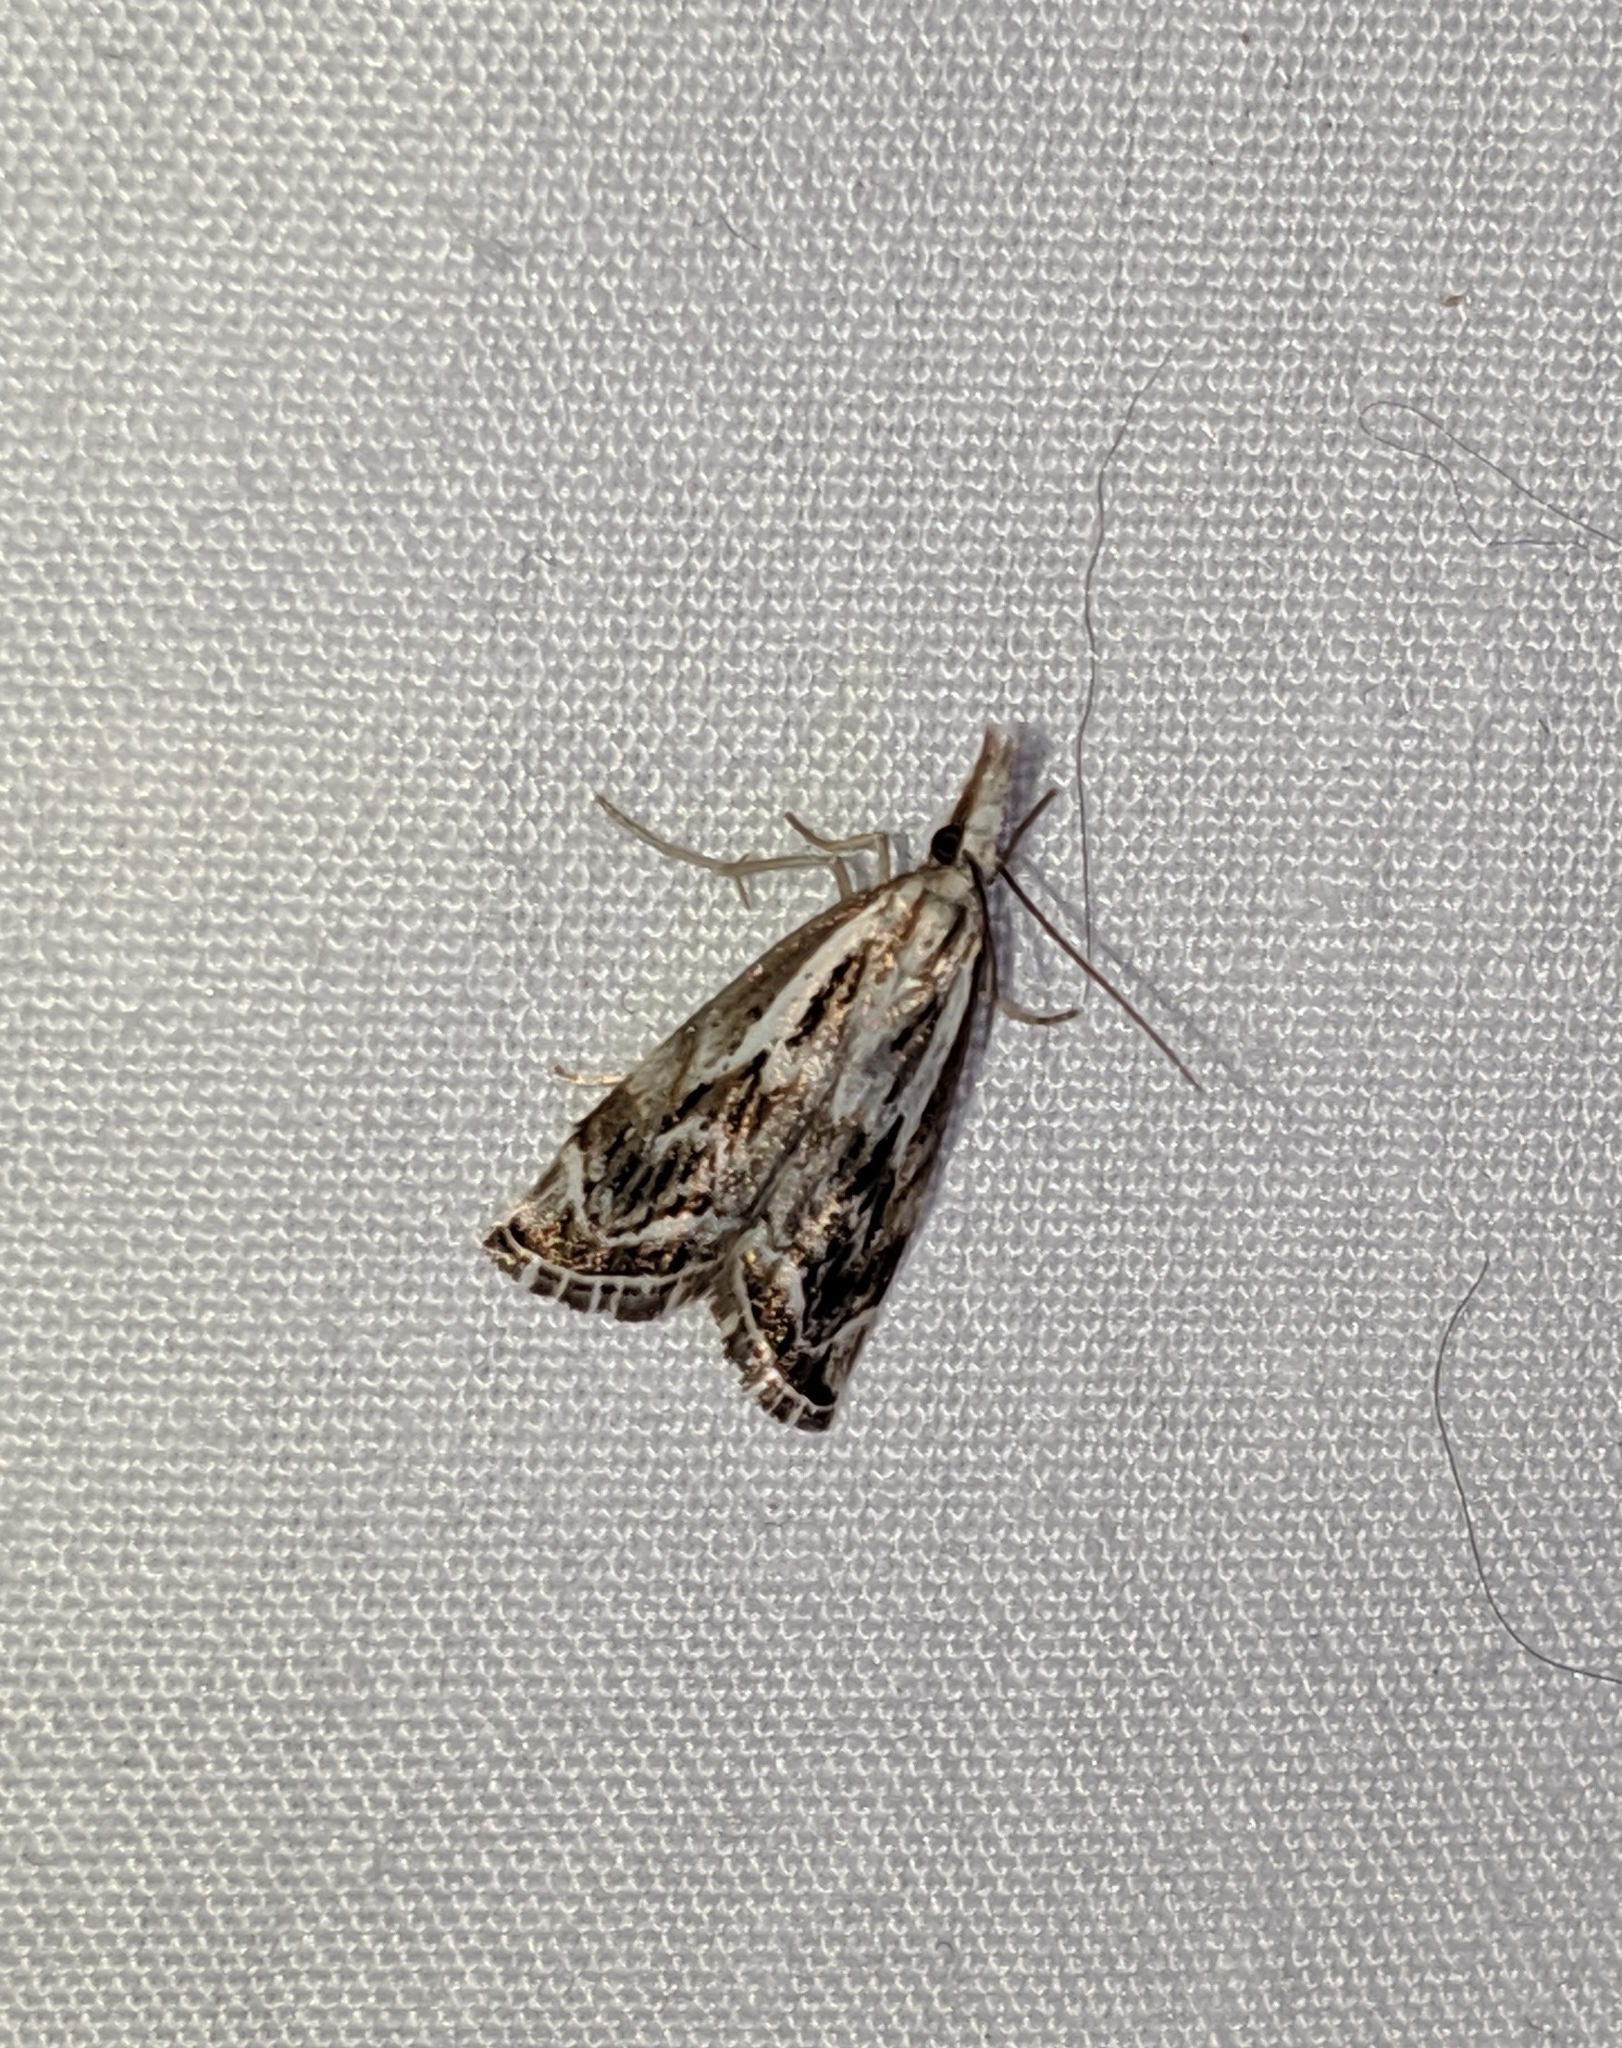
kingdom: Animalia
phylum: Arthropoda
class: Insecta
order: Lepidoptera
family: Crambidae
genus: Catoptria
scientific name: Catoptria oregonicus
